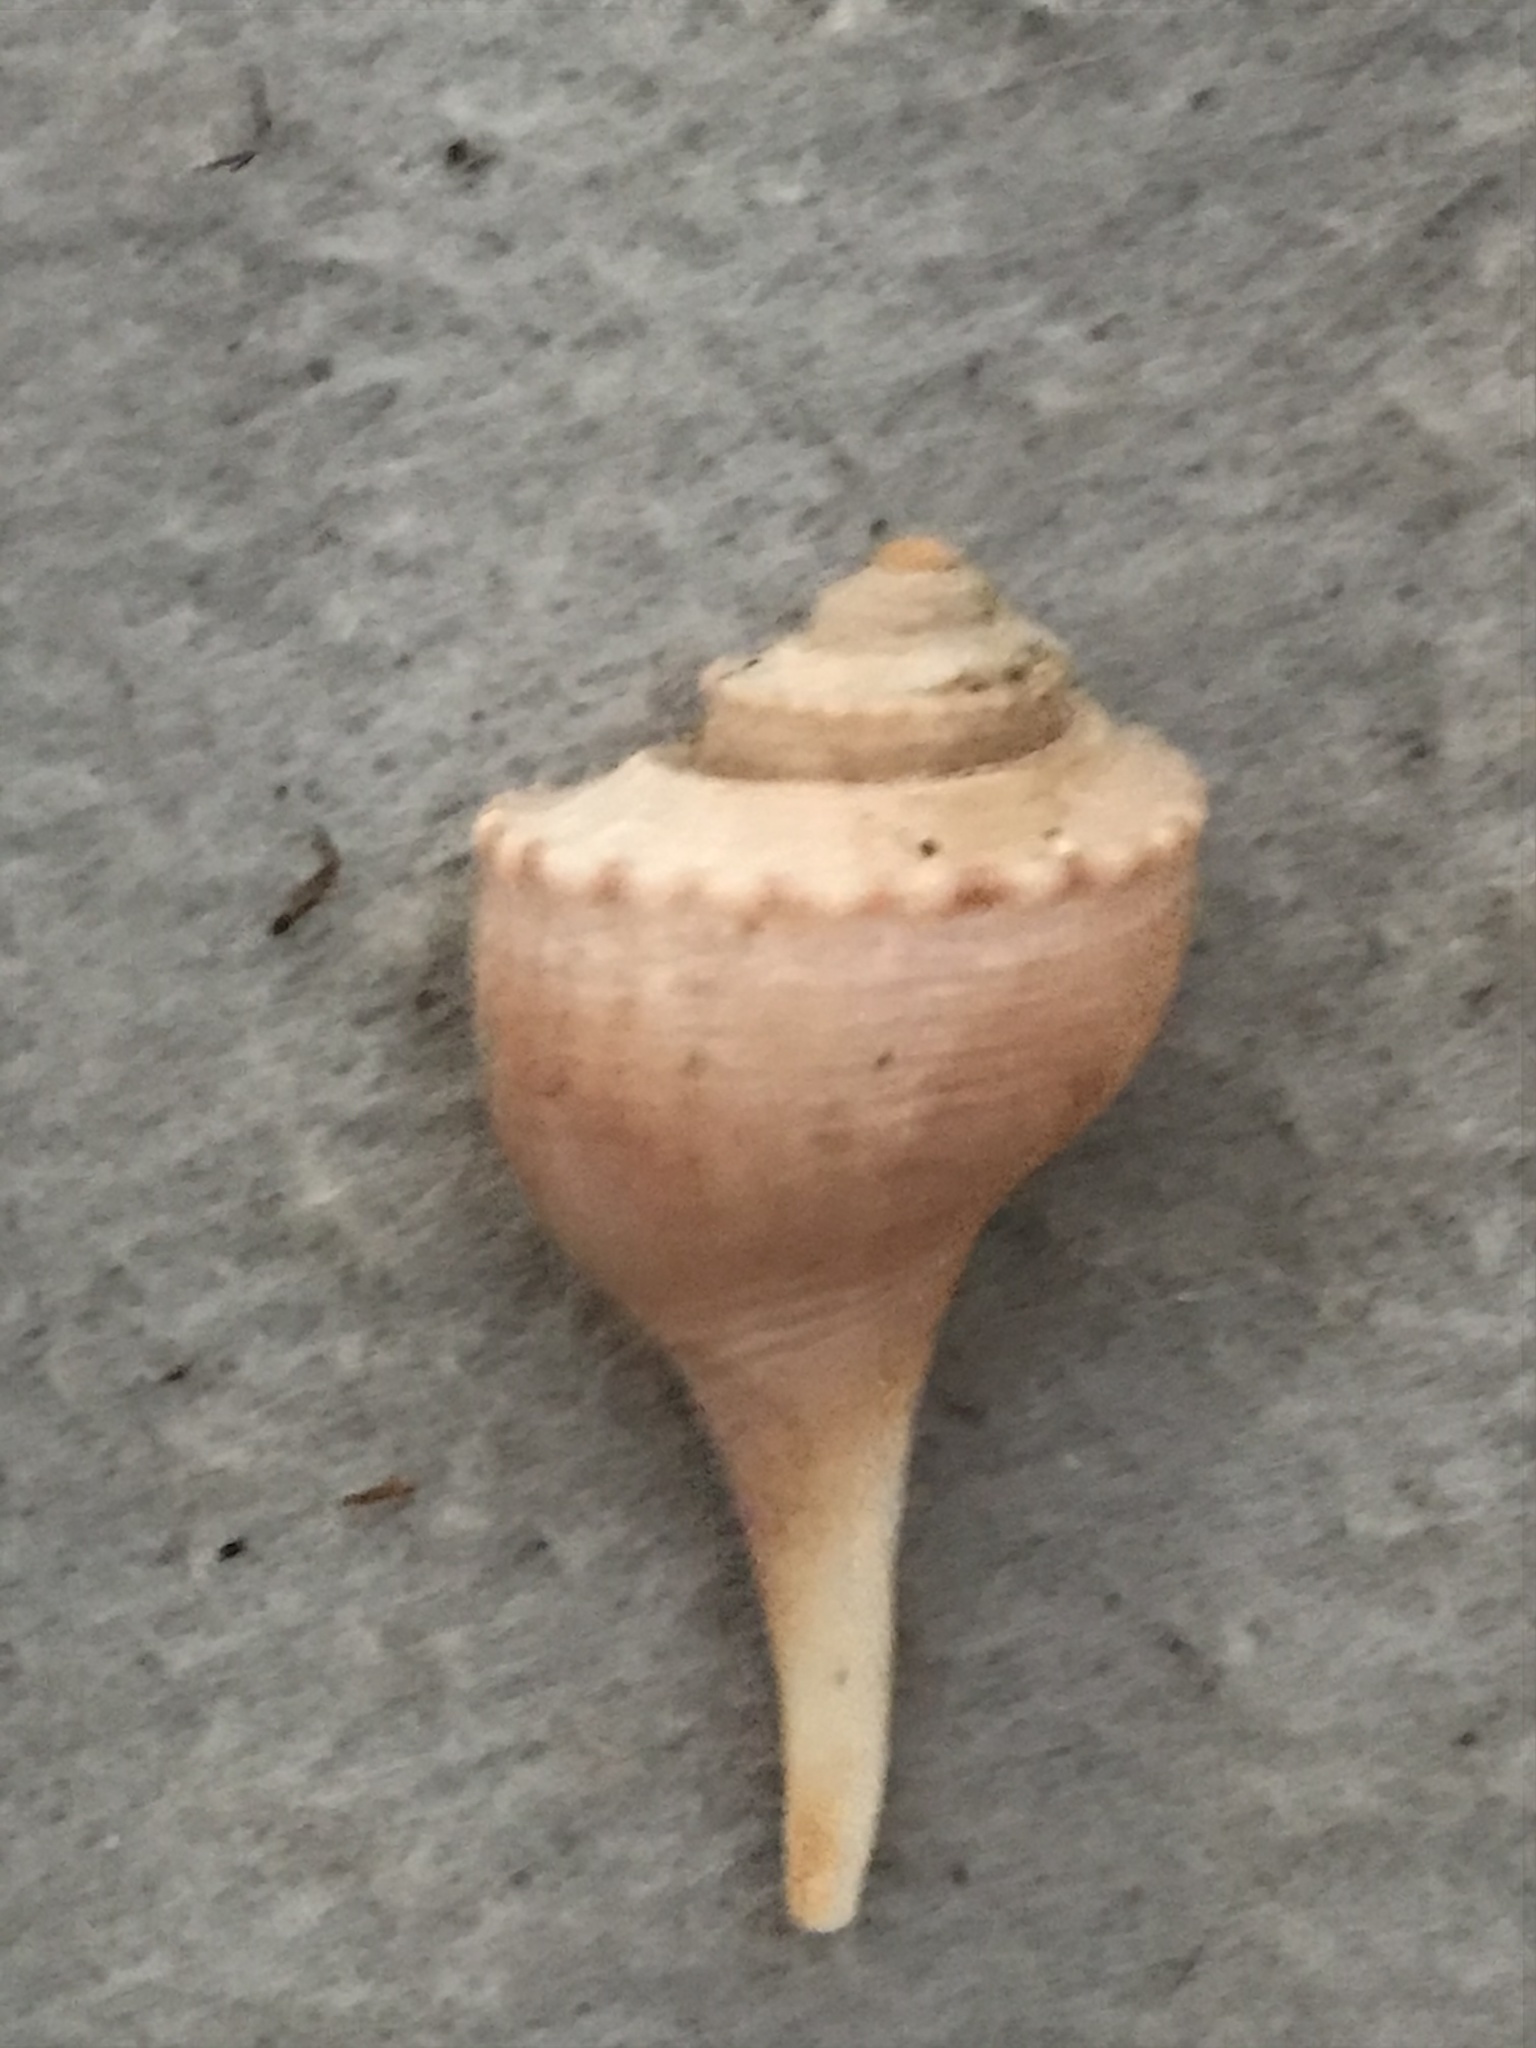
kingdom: Animalia
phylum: Mollusca
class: Gastropoda
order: Neogastropoda
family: Busyconidae
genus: Busycotypus
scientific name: Busycotypus canaliculatus
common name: Channeled whelk
